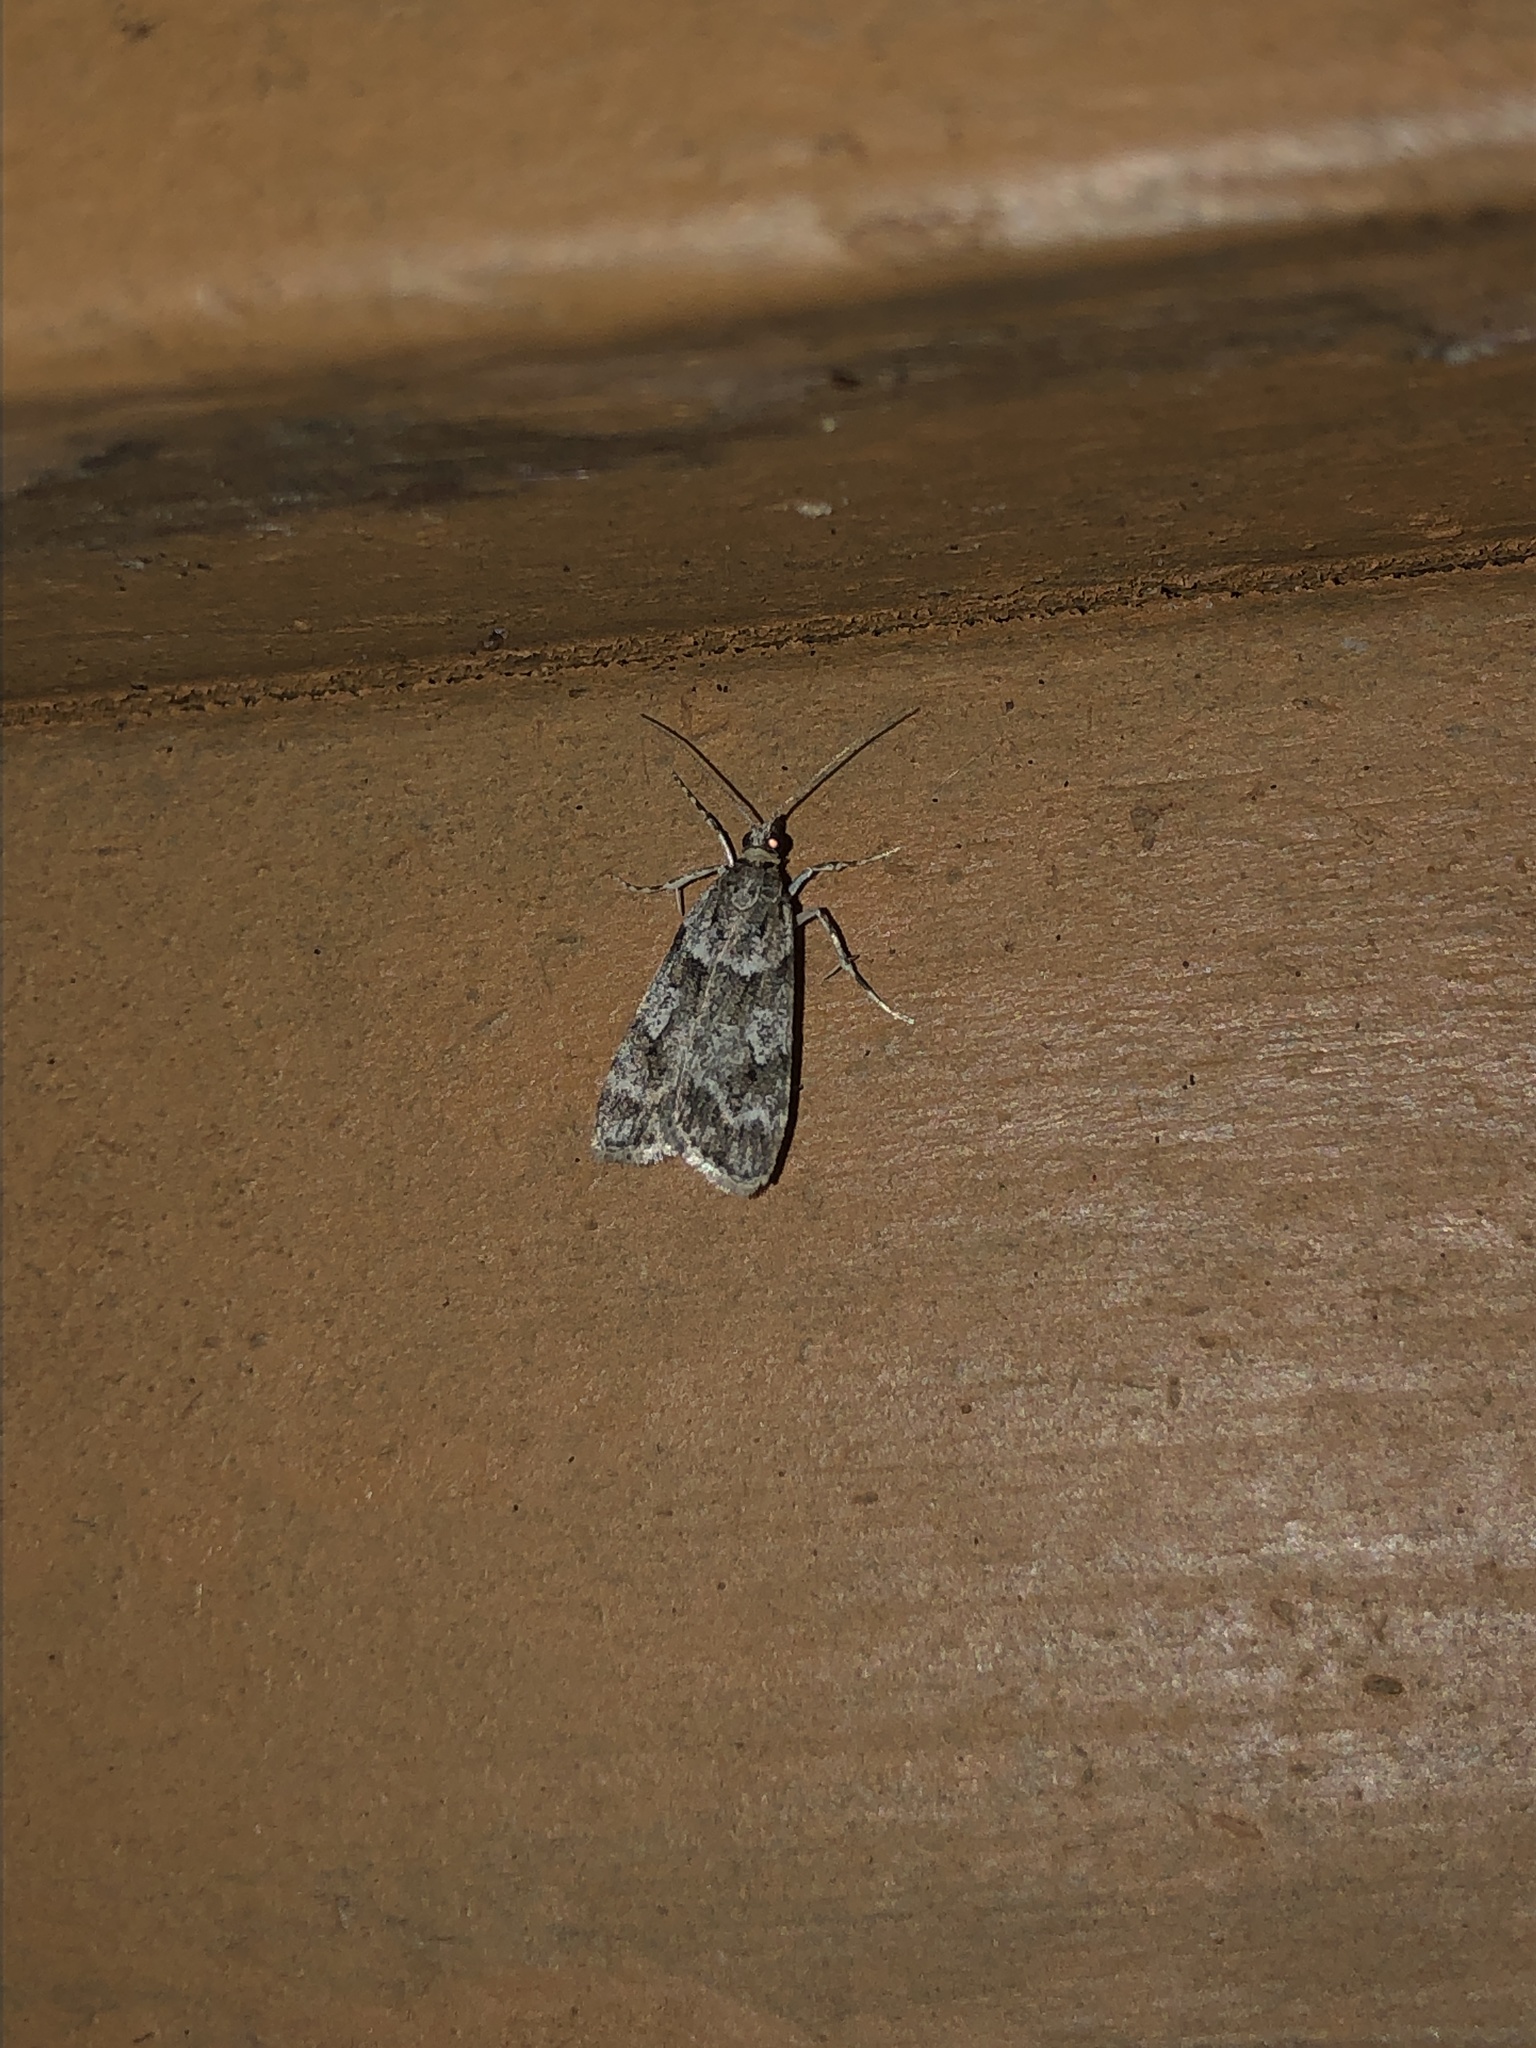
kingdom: Animalia
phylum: Arthropoda
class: Insecta
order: Lepidoptera
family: Crambidae
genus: Scoparia
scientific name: Scoparia biplagialis
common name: Double-striped scoparia moth
